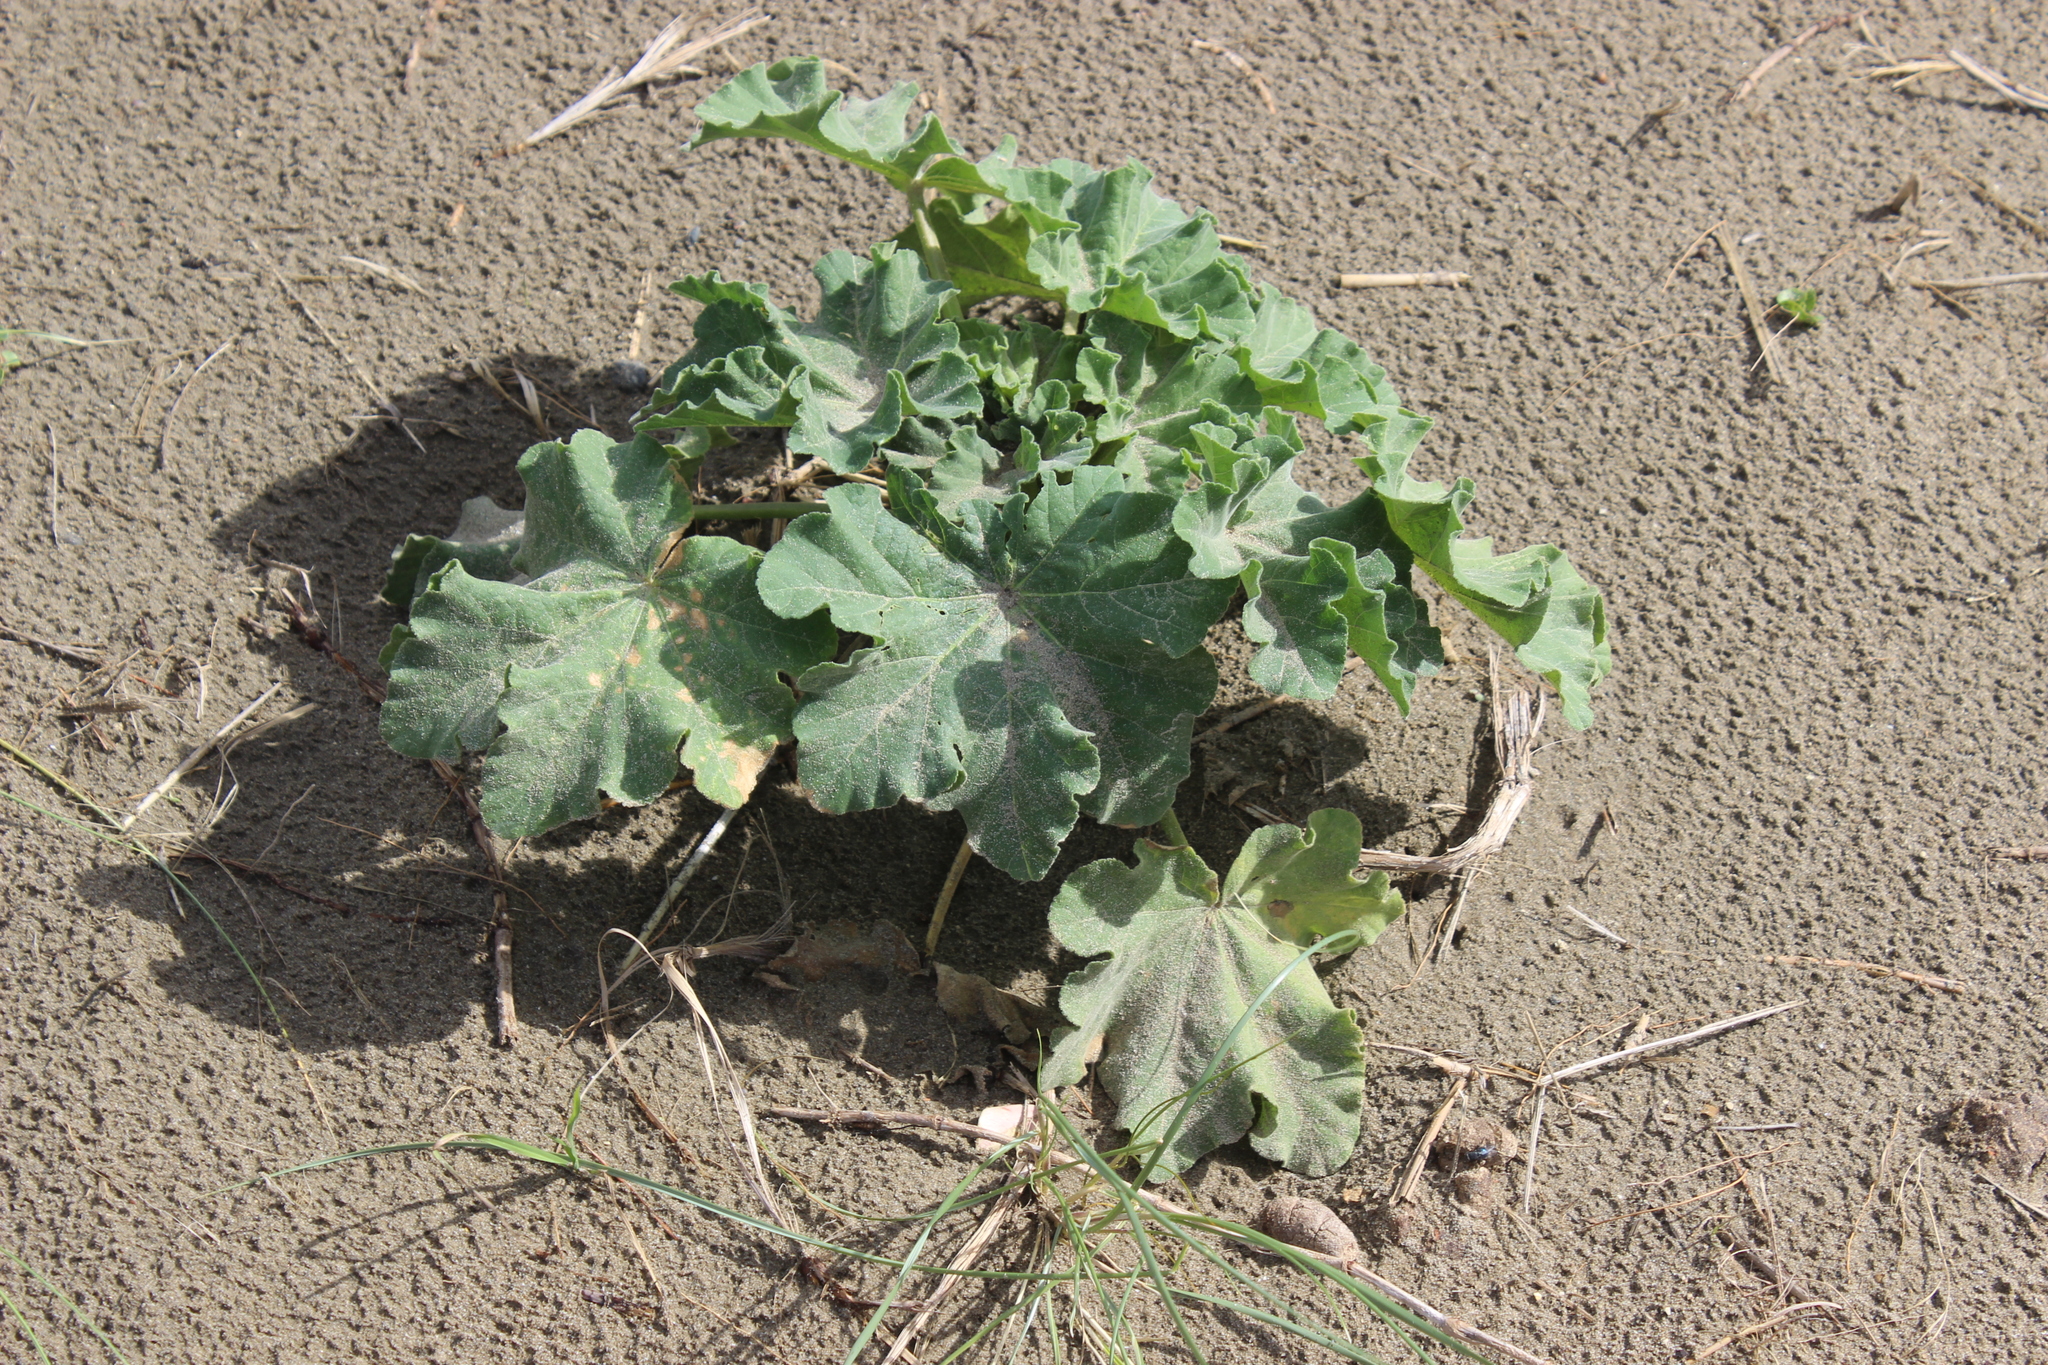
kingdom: Plantae
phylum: Tracheophyta
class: Magnoliopsida
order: Malvales
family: Malvaceae
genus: Malva
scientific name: Malva arborea
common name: Tree mallow
